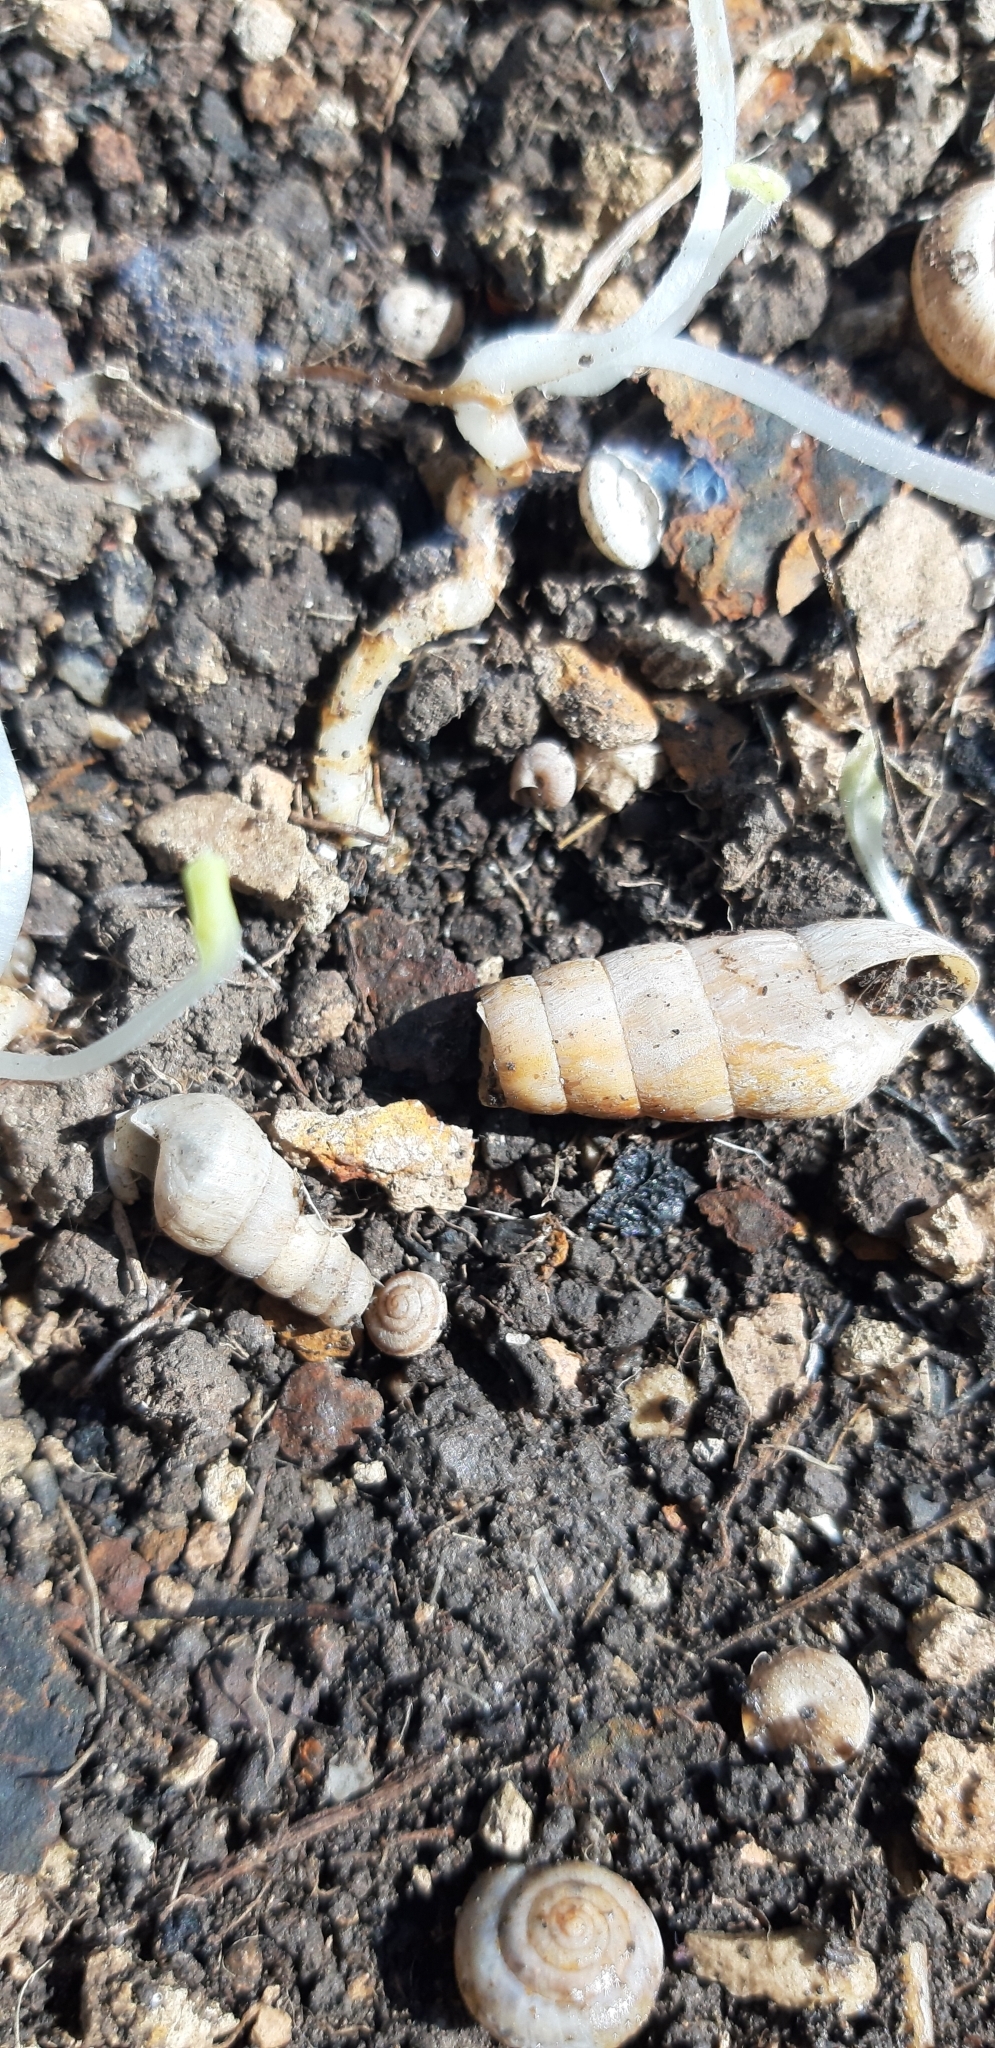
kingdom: Animalia
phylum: Mollusca
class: Gastropoda
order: Stylommatophora
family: Achatinidae
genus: Rumina
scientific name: Rumina decollata
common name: Decollate snail
